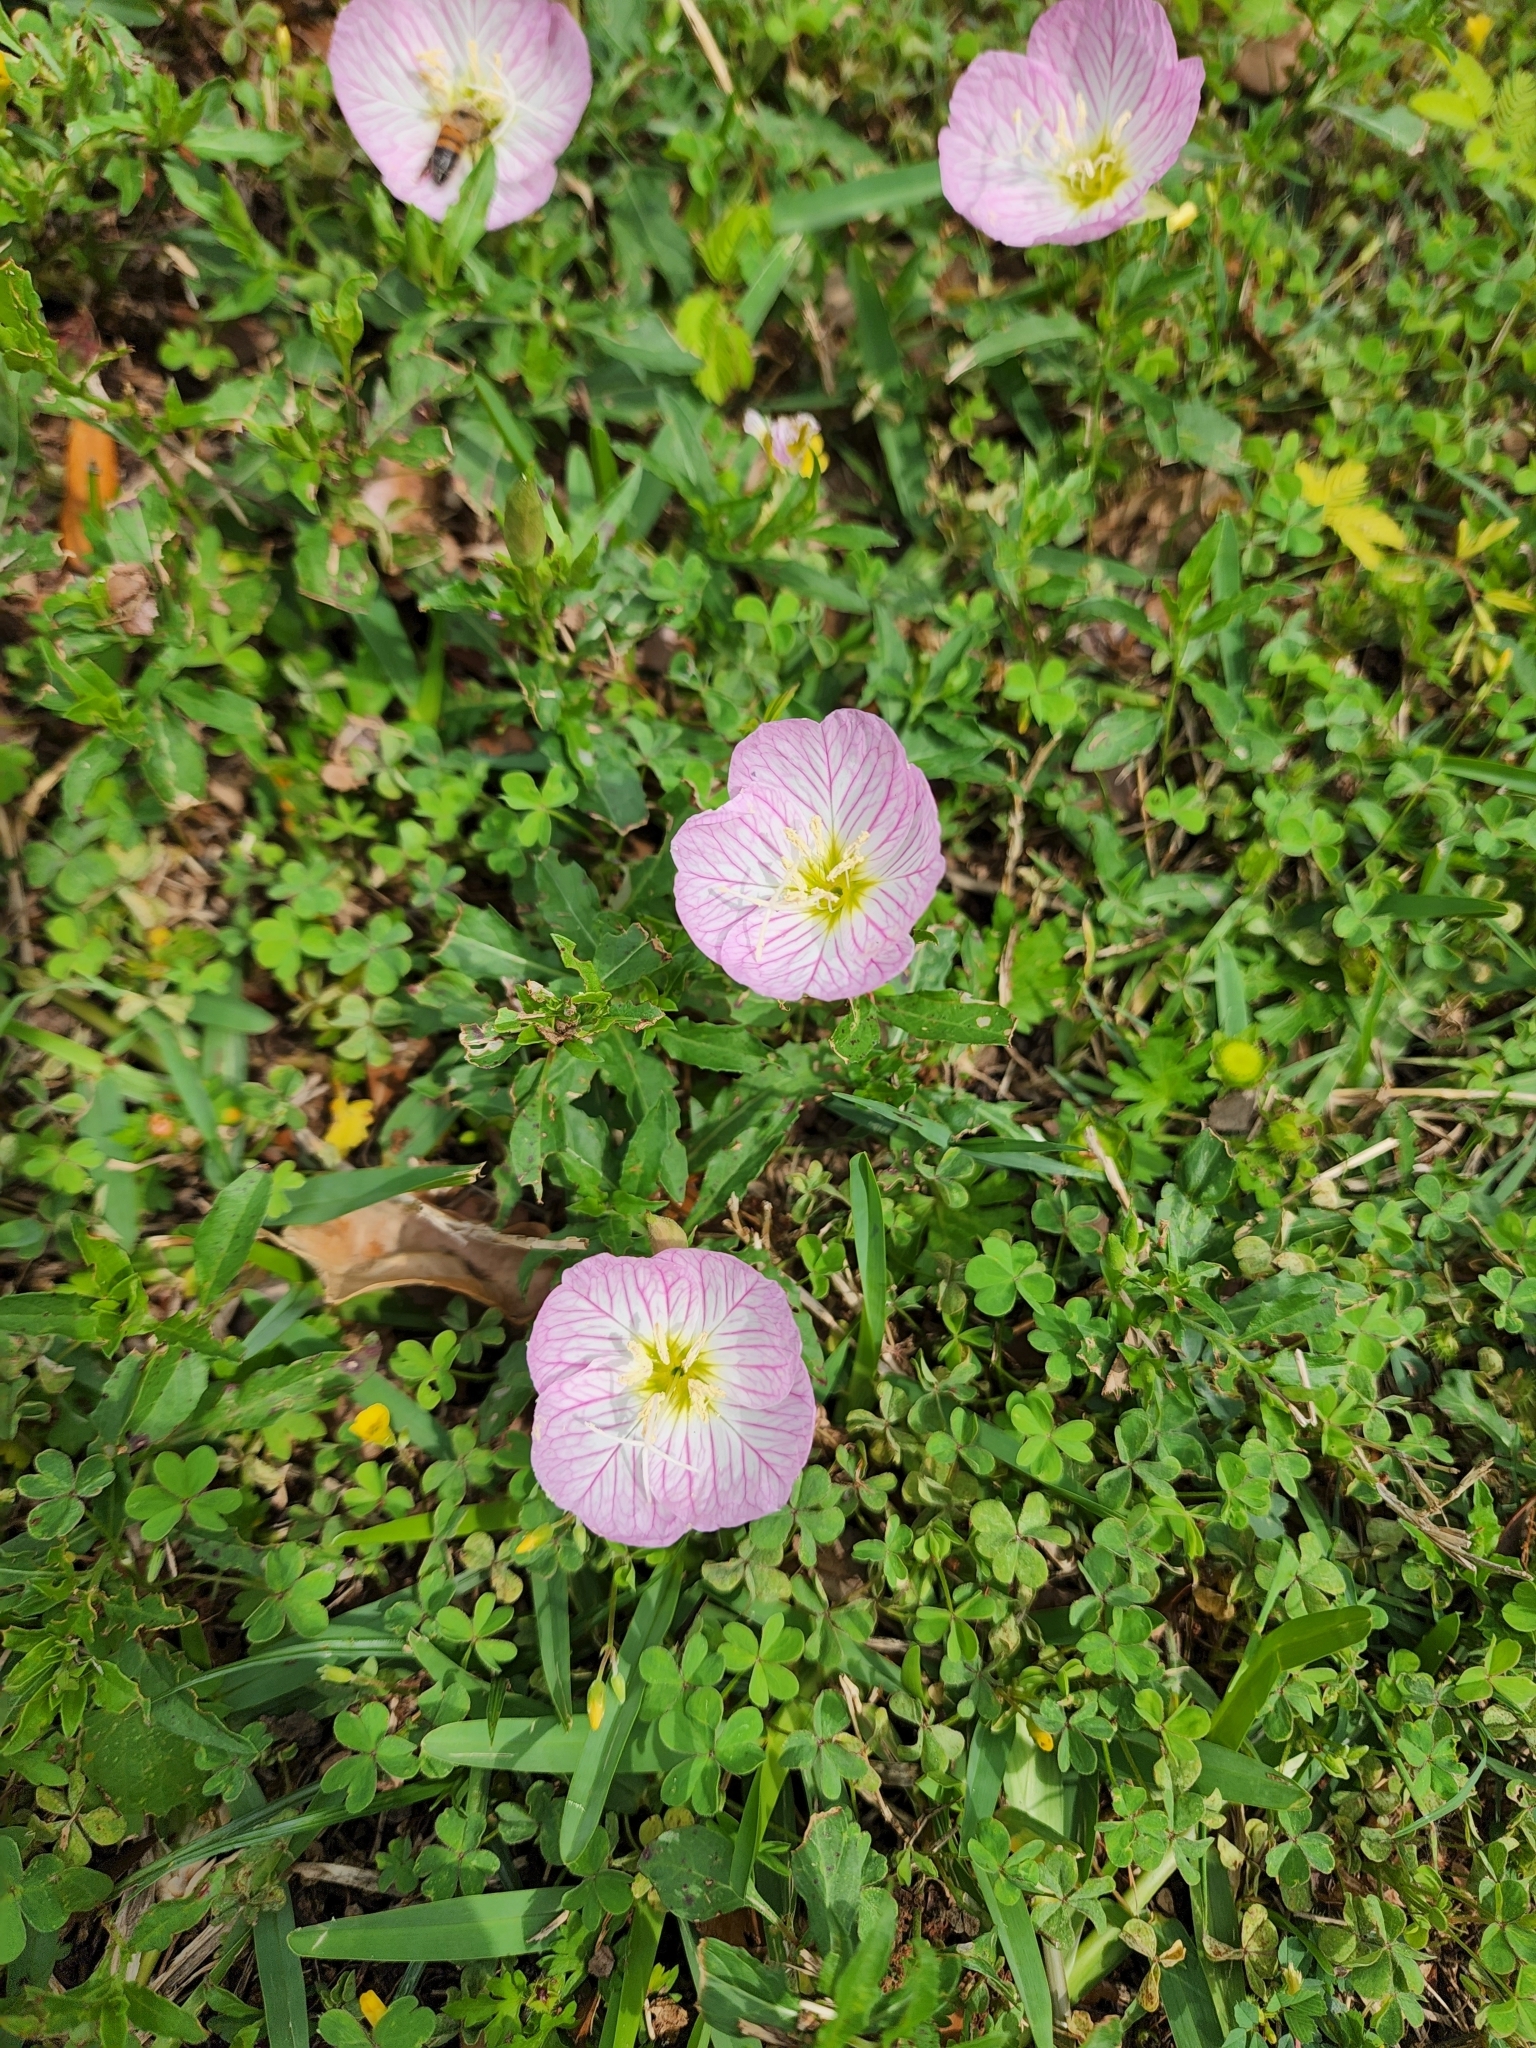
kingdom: Plantae
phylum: Tracheophyta
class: Magnoliopsida
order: Myrtales
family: Onagraceae
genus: Oenothera
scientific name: Oenothera speciosa
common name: White evening-primrose
